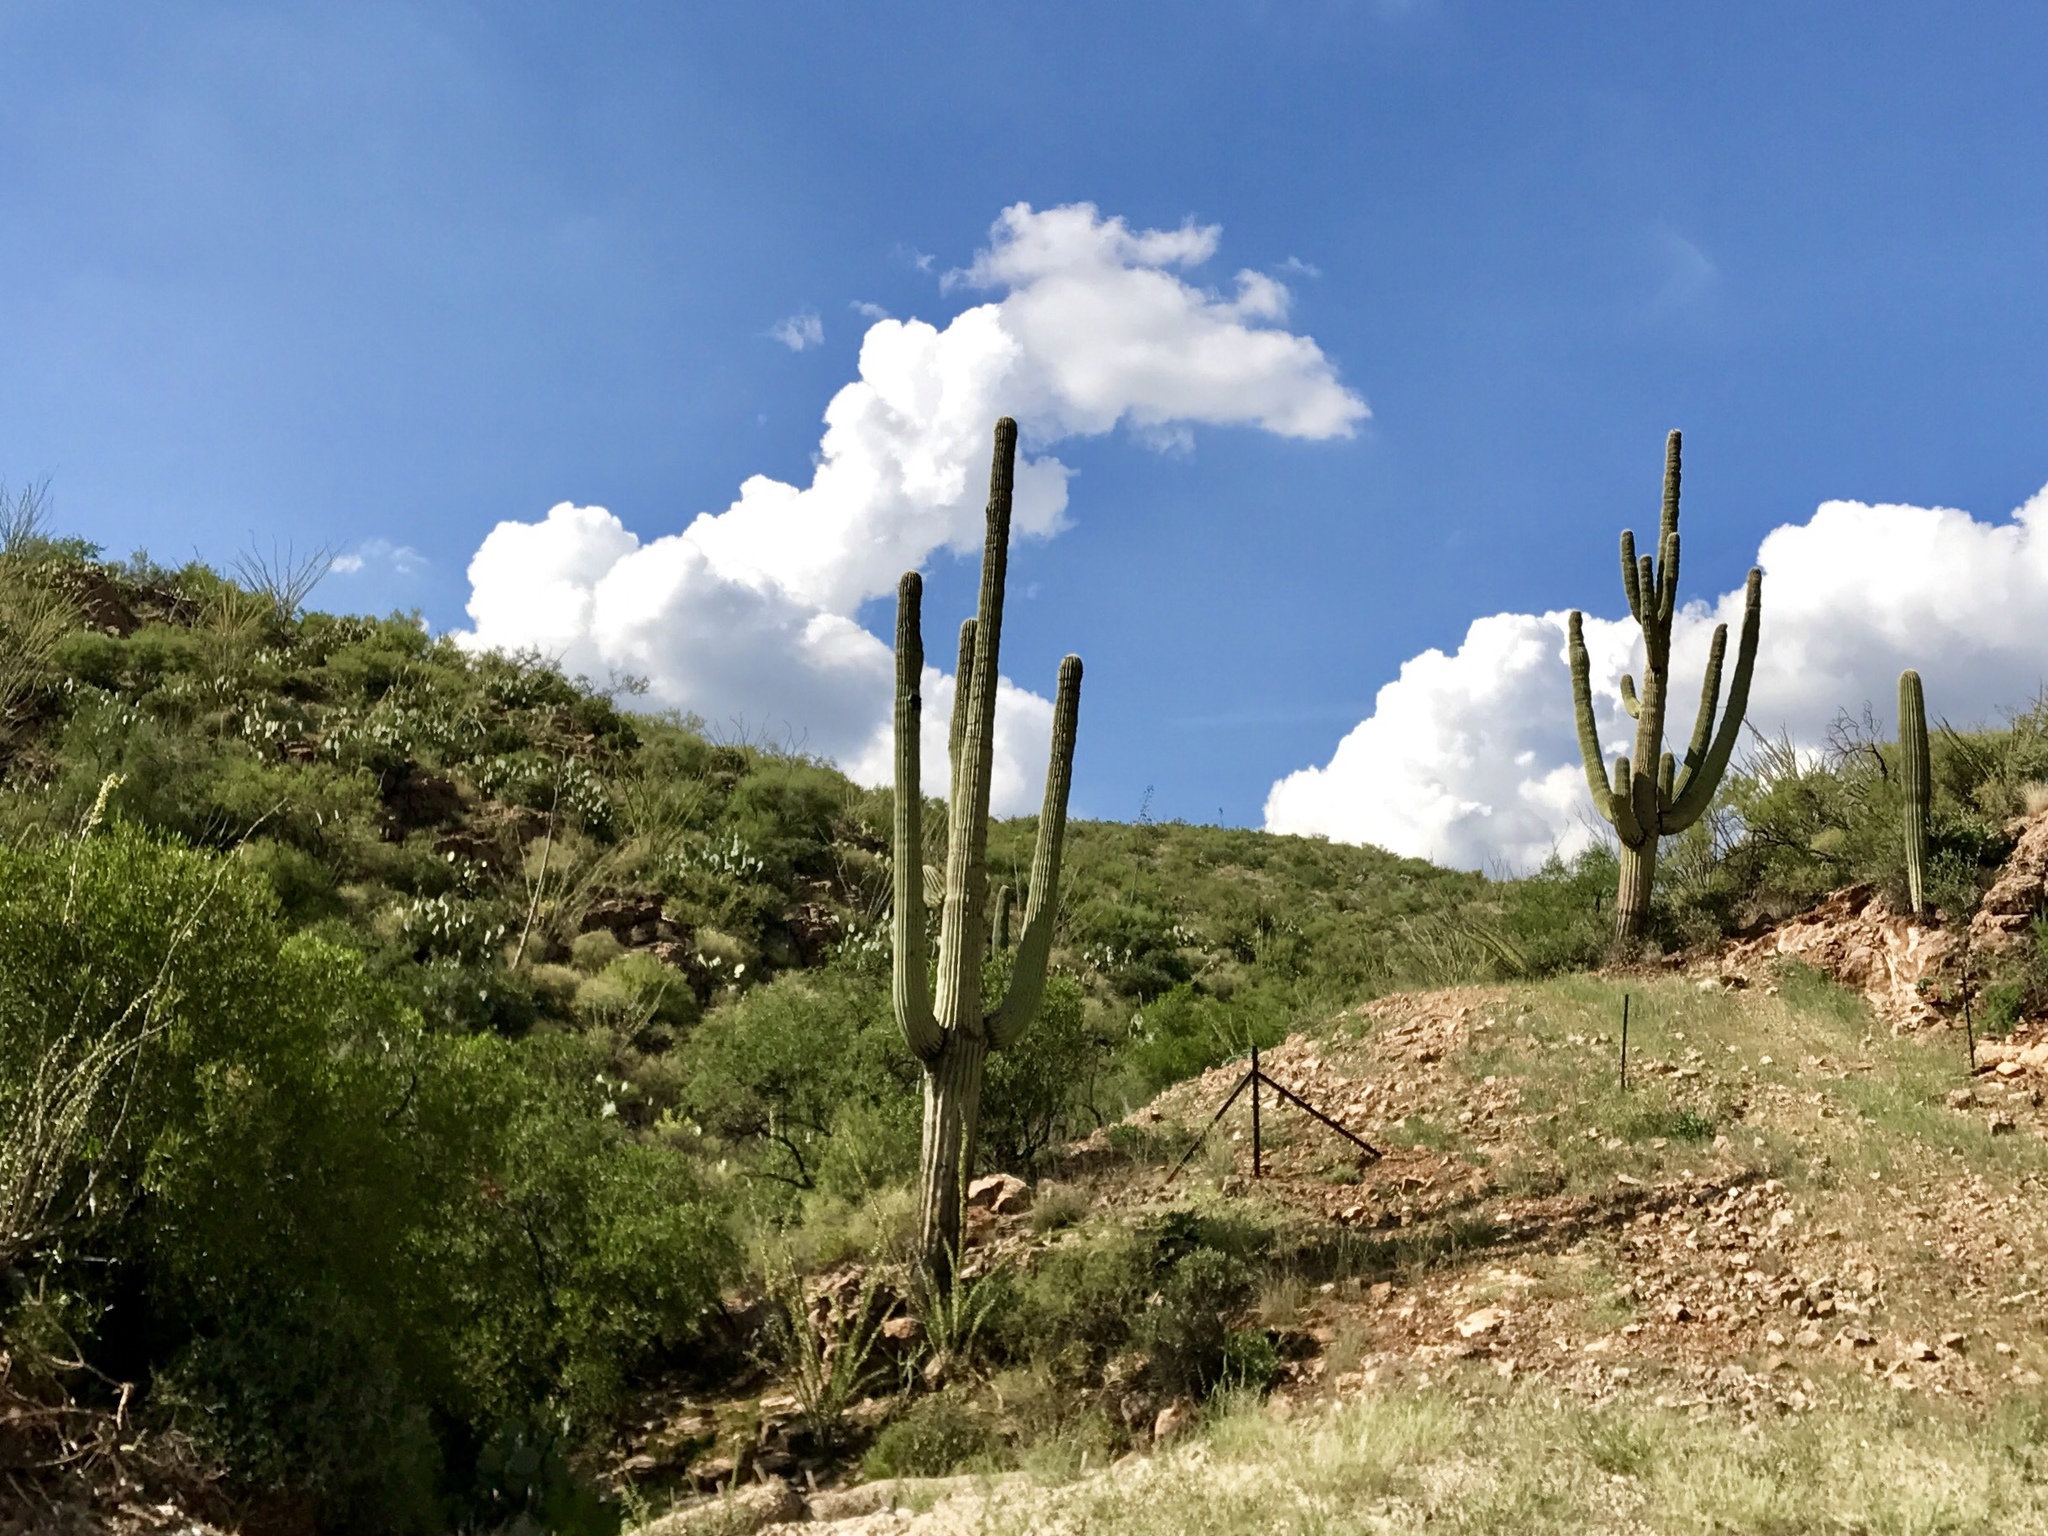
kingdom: Plantae
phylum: Tracheophyta
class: Magnoliopsida
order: Caryophyllales
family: Cactaceae
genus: Carnegiea
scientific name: Carnegiea gigantea
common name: Saguaro
